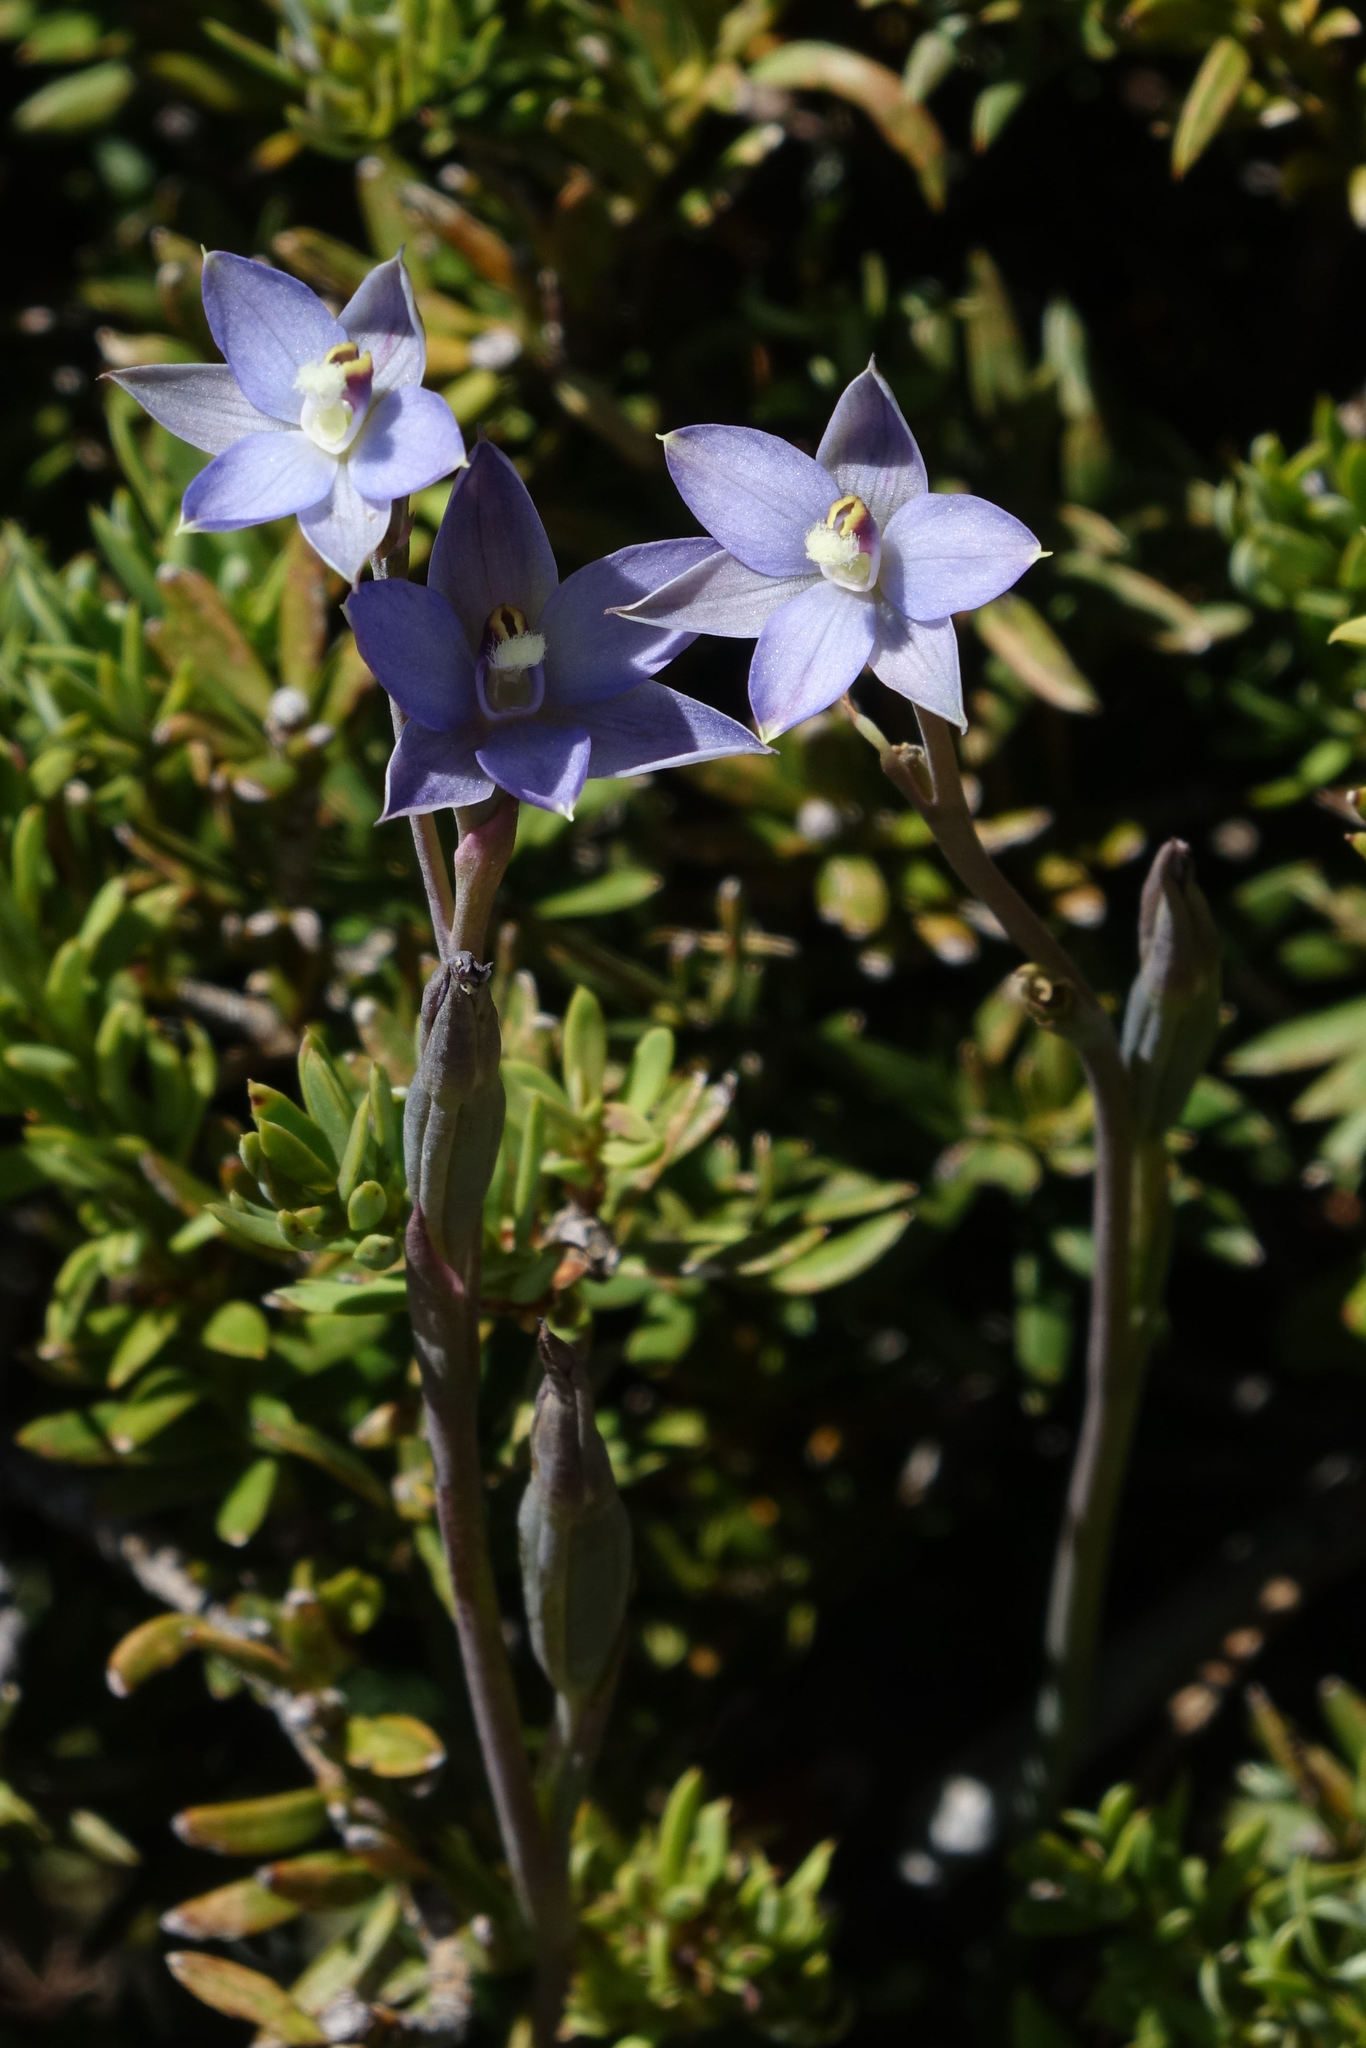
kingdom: Plantae
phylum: Tracheophyta
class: Liliopsida
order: Asparagales
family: Orchidaceae
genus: Thelymitra
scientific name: Thelymitra hatchii
